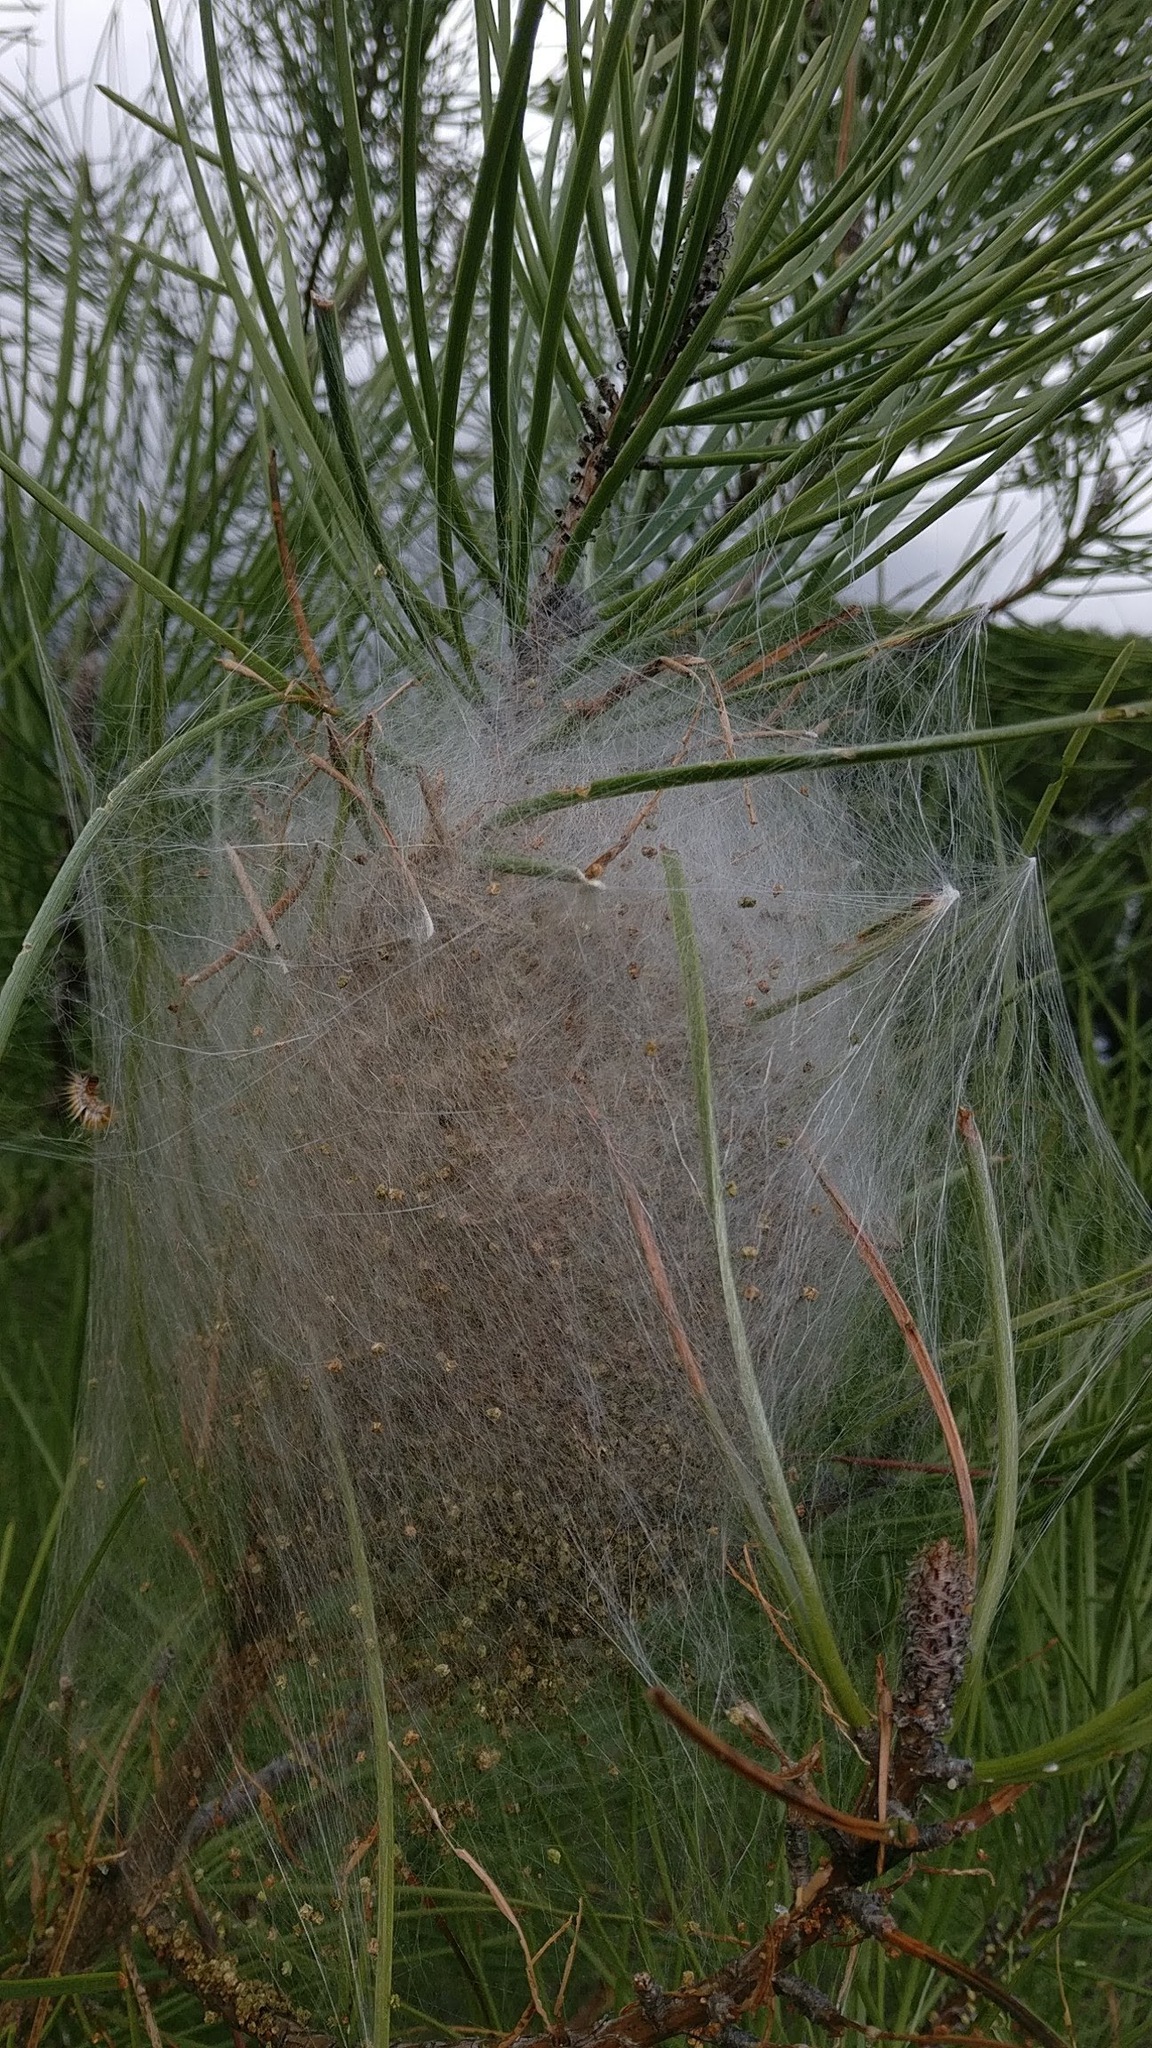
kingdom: Animalia
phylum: Arthropoda
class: Insecta
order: Lepidoptera
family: Notodontidae
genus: Thaumetopoea
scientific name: Thaumetopoea pityocampa
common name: Pine processionary
